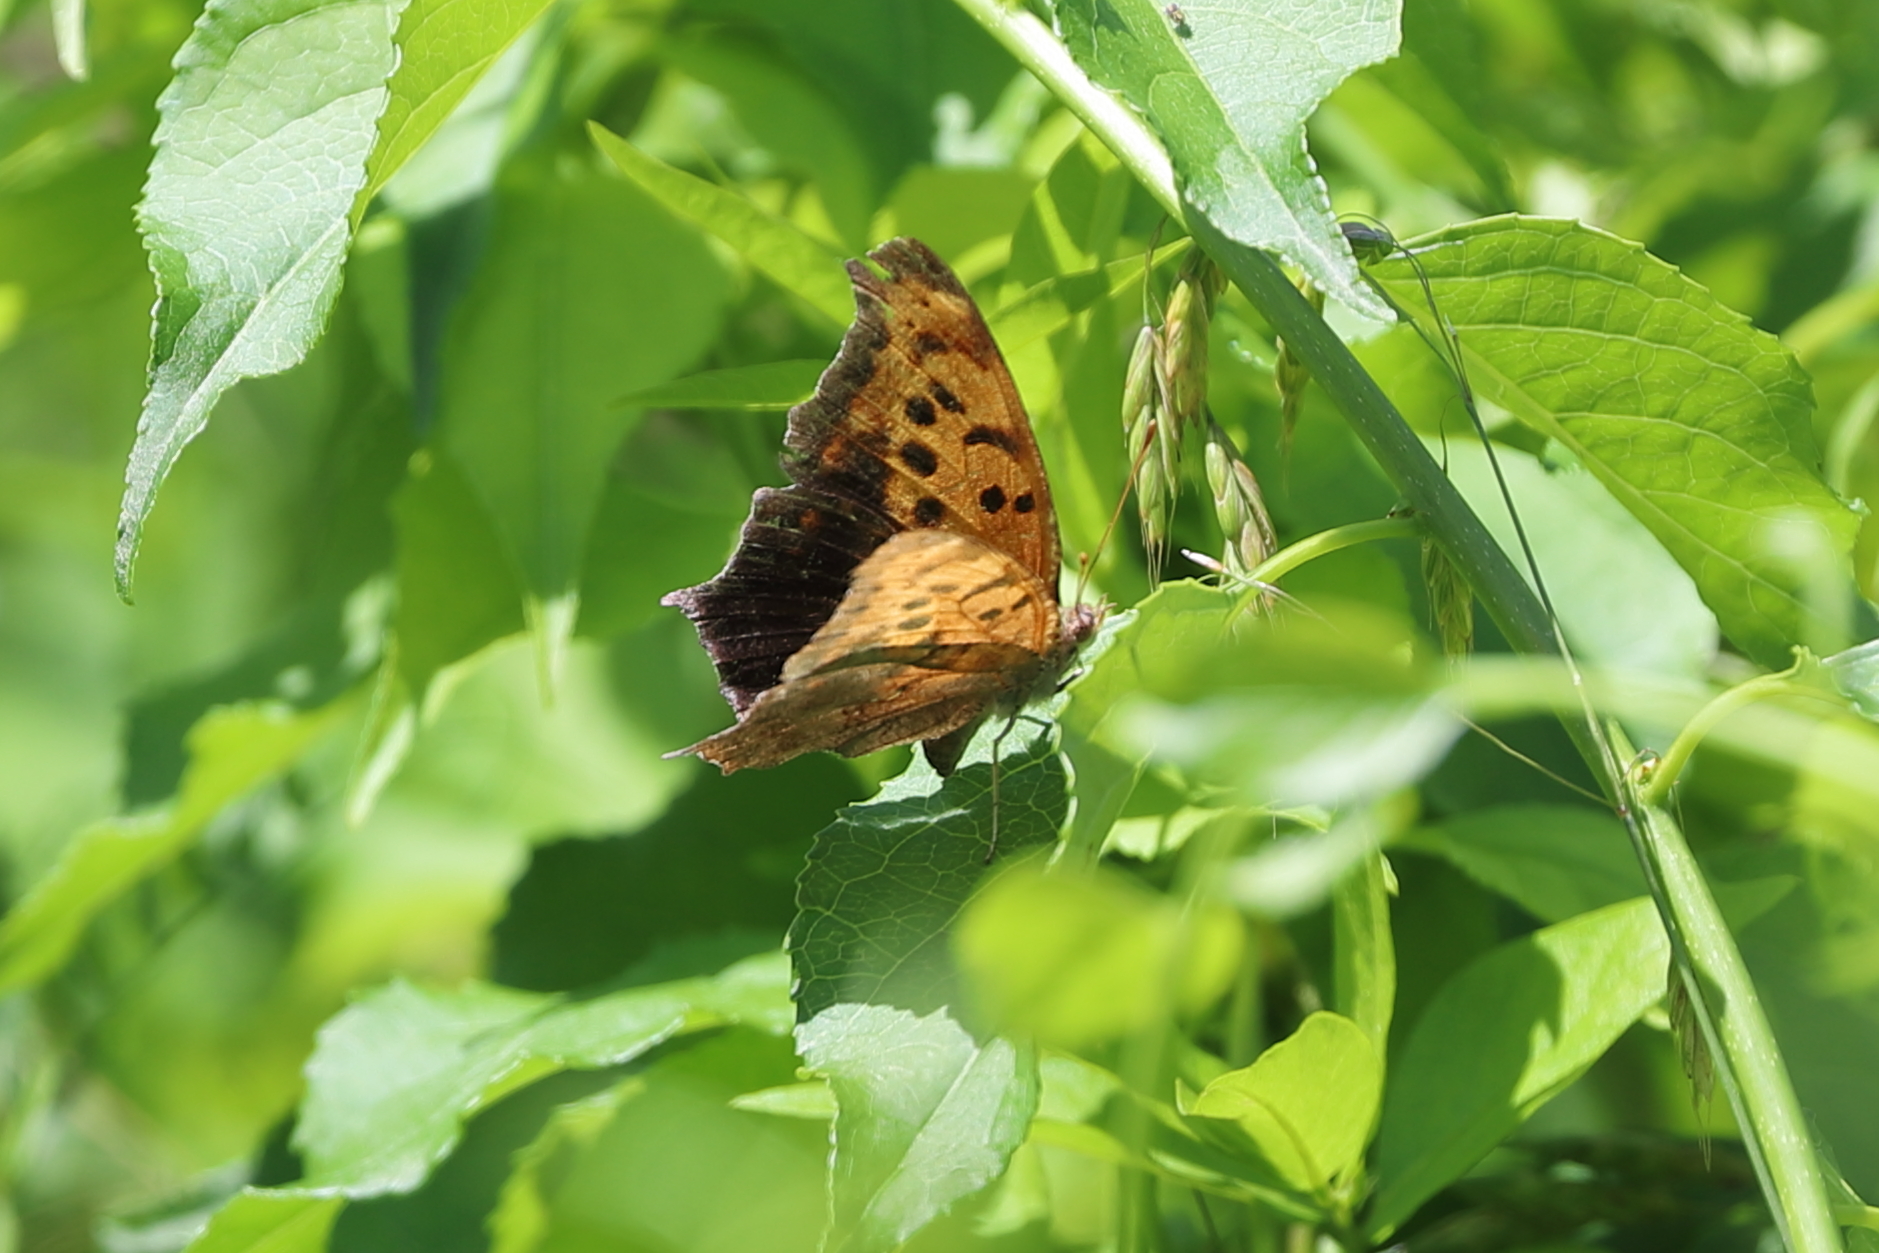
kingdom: Animalia
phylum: Arthropoda
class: Insecta
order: Lepidoptera
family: Nymphalidae
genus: Polygonia
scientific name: Polygonia interrogationis
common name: Question mark
